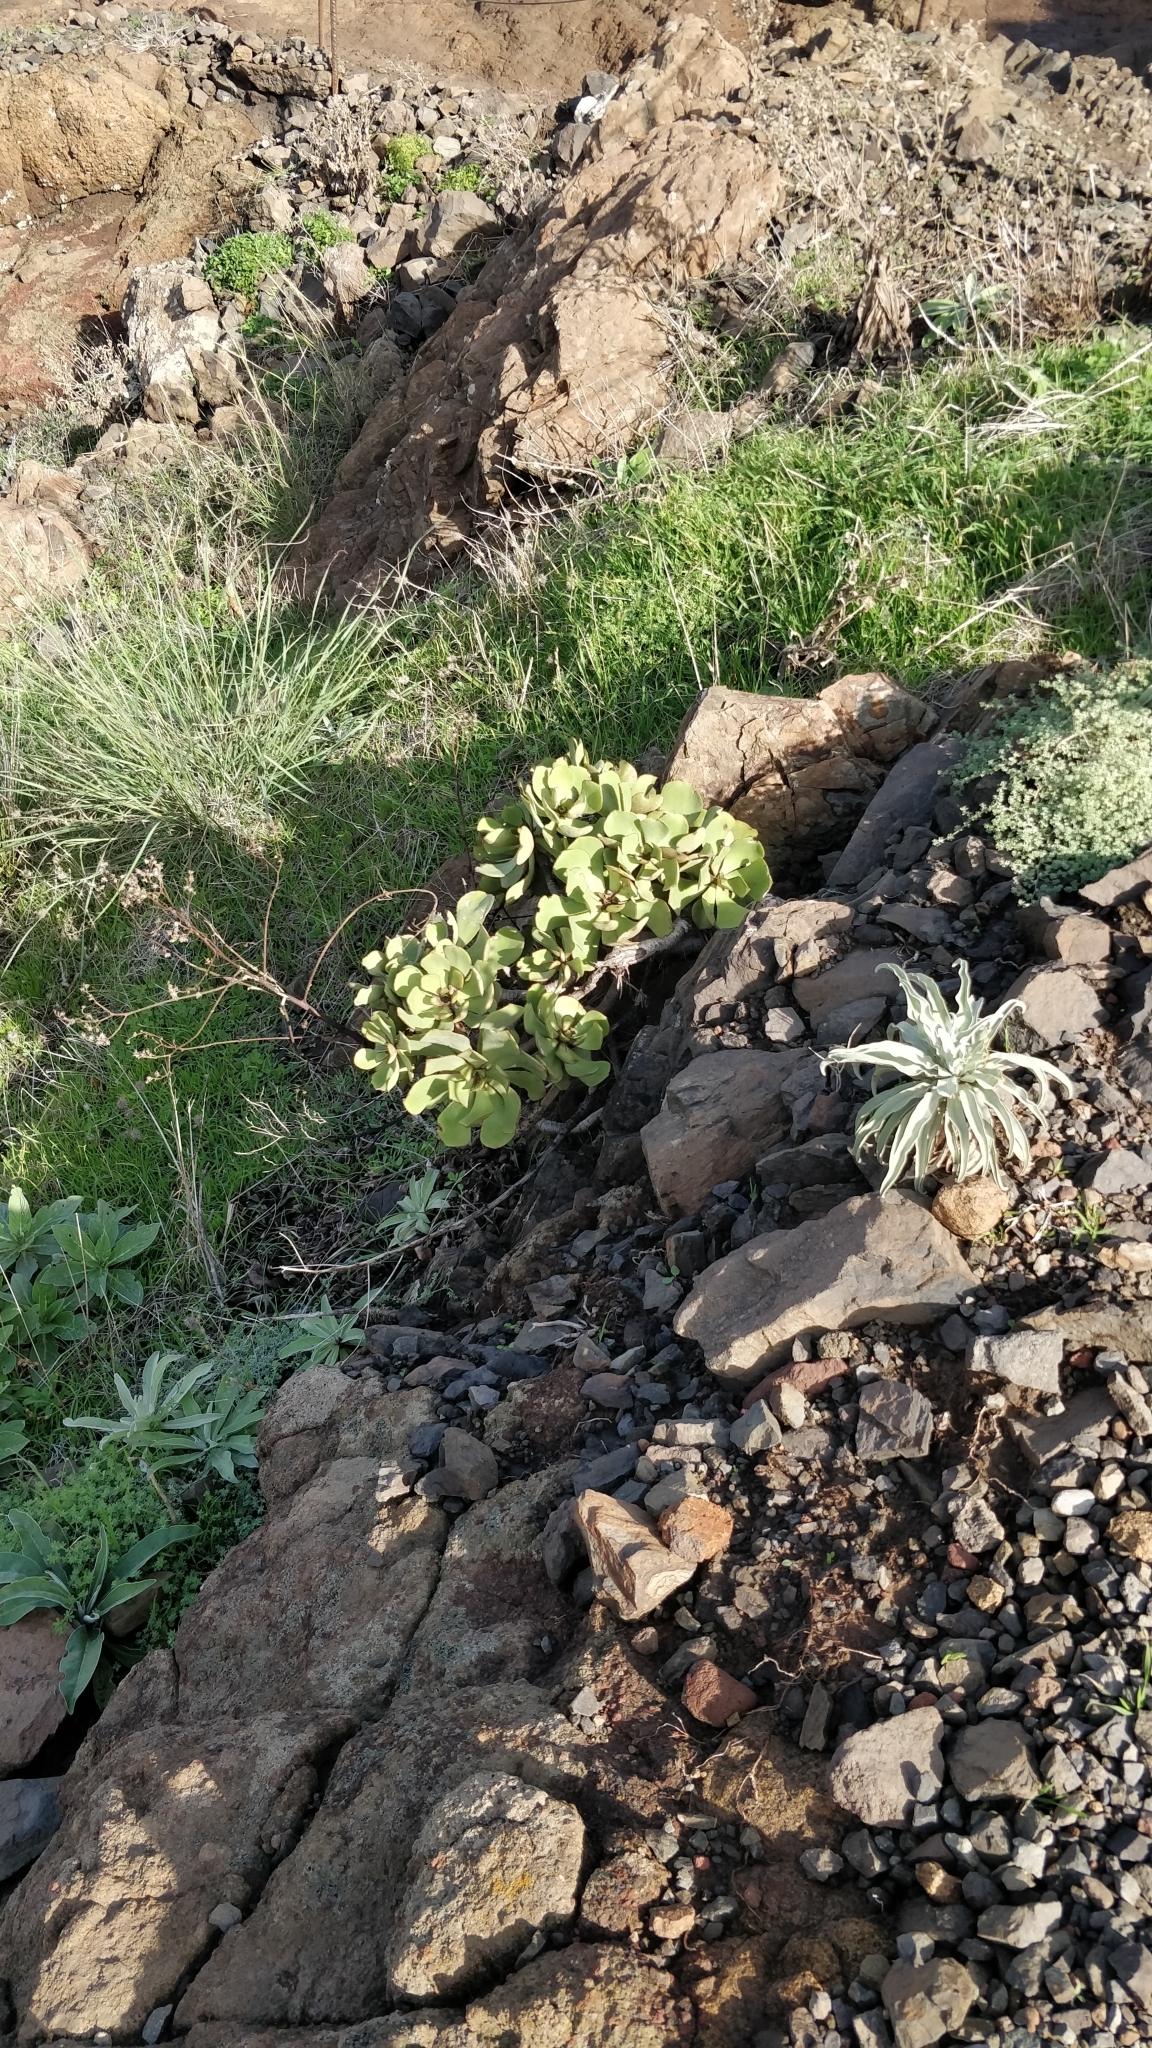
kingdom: Plantae
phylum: Tracheophyta
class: Magnoliopsida
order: Saxifragales
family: Crassulaceae
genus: Aeonium
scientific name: Aeonium glutinosum
